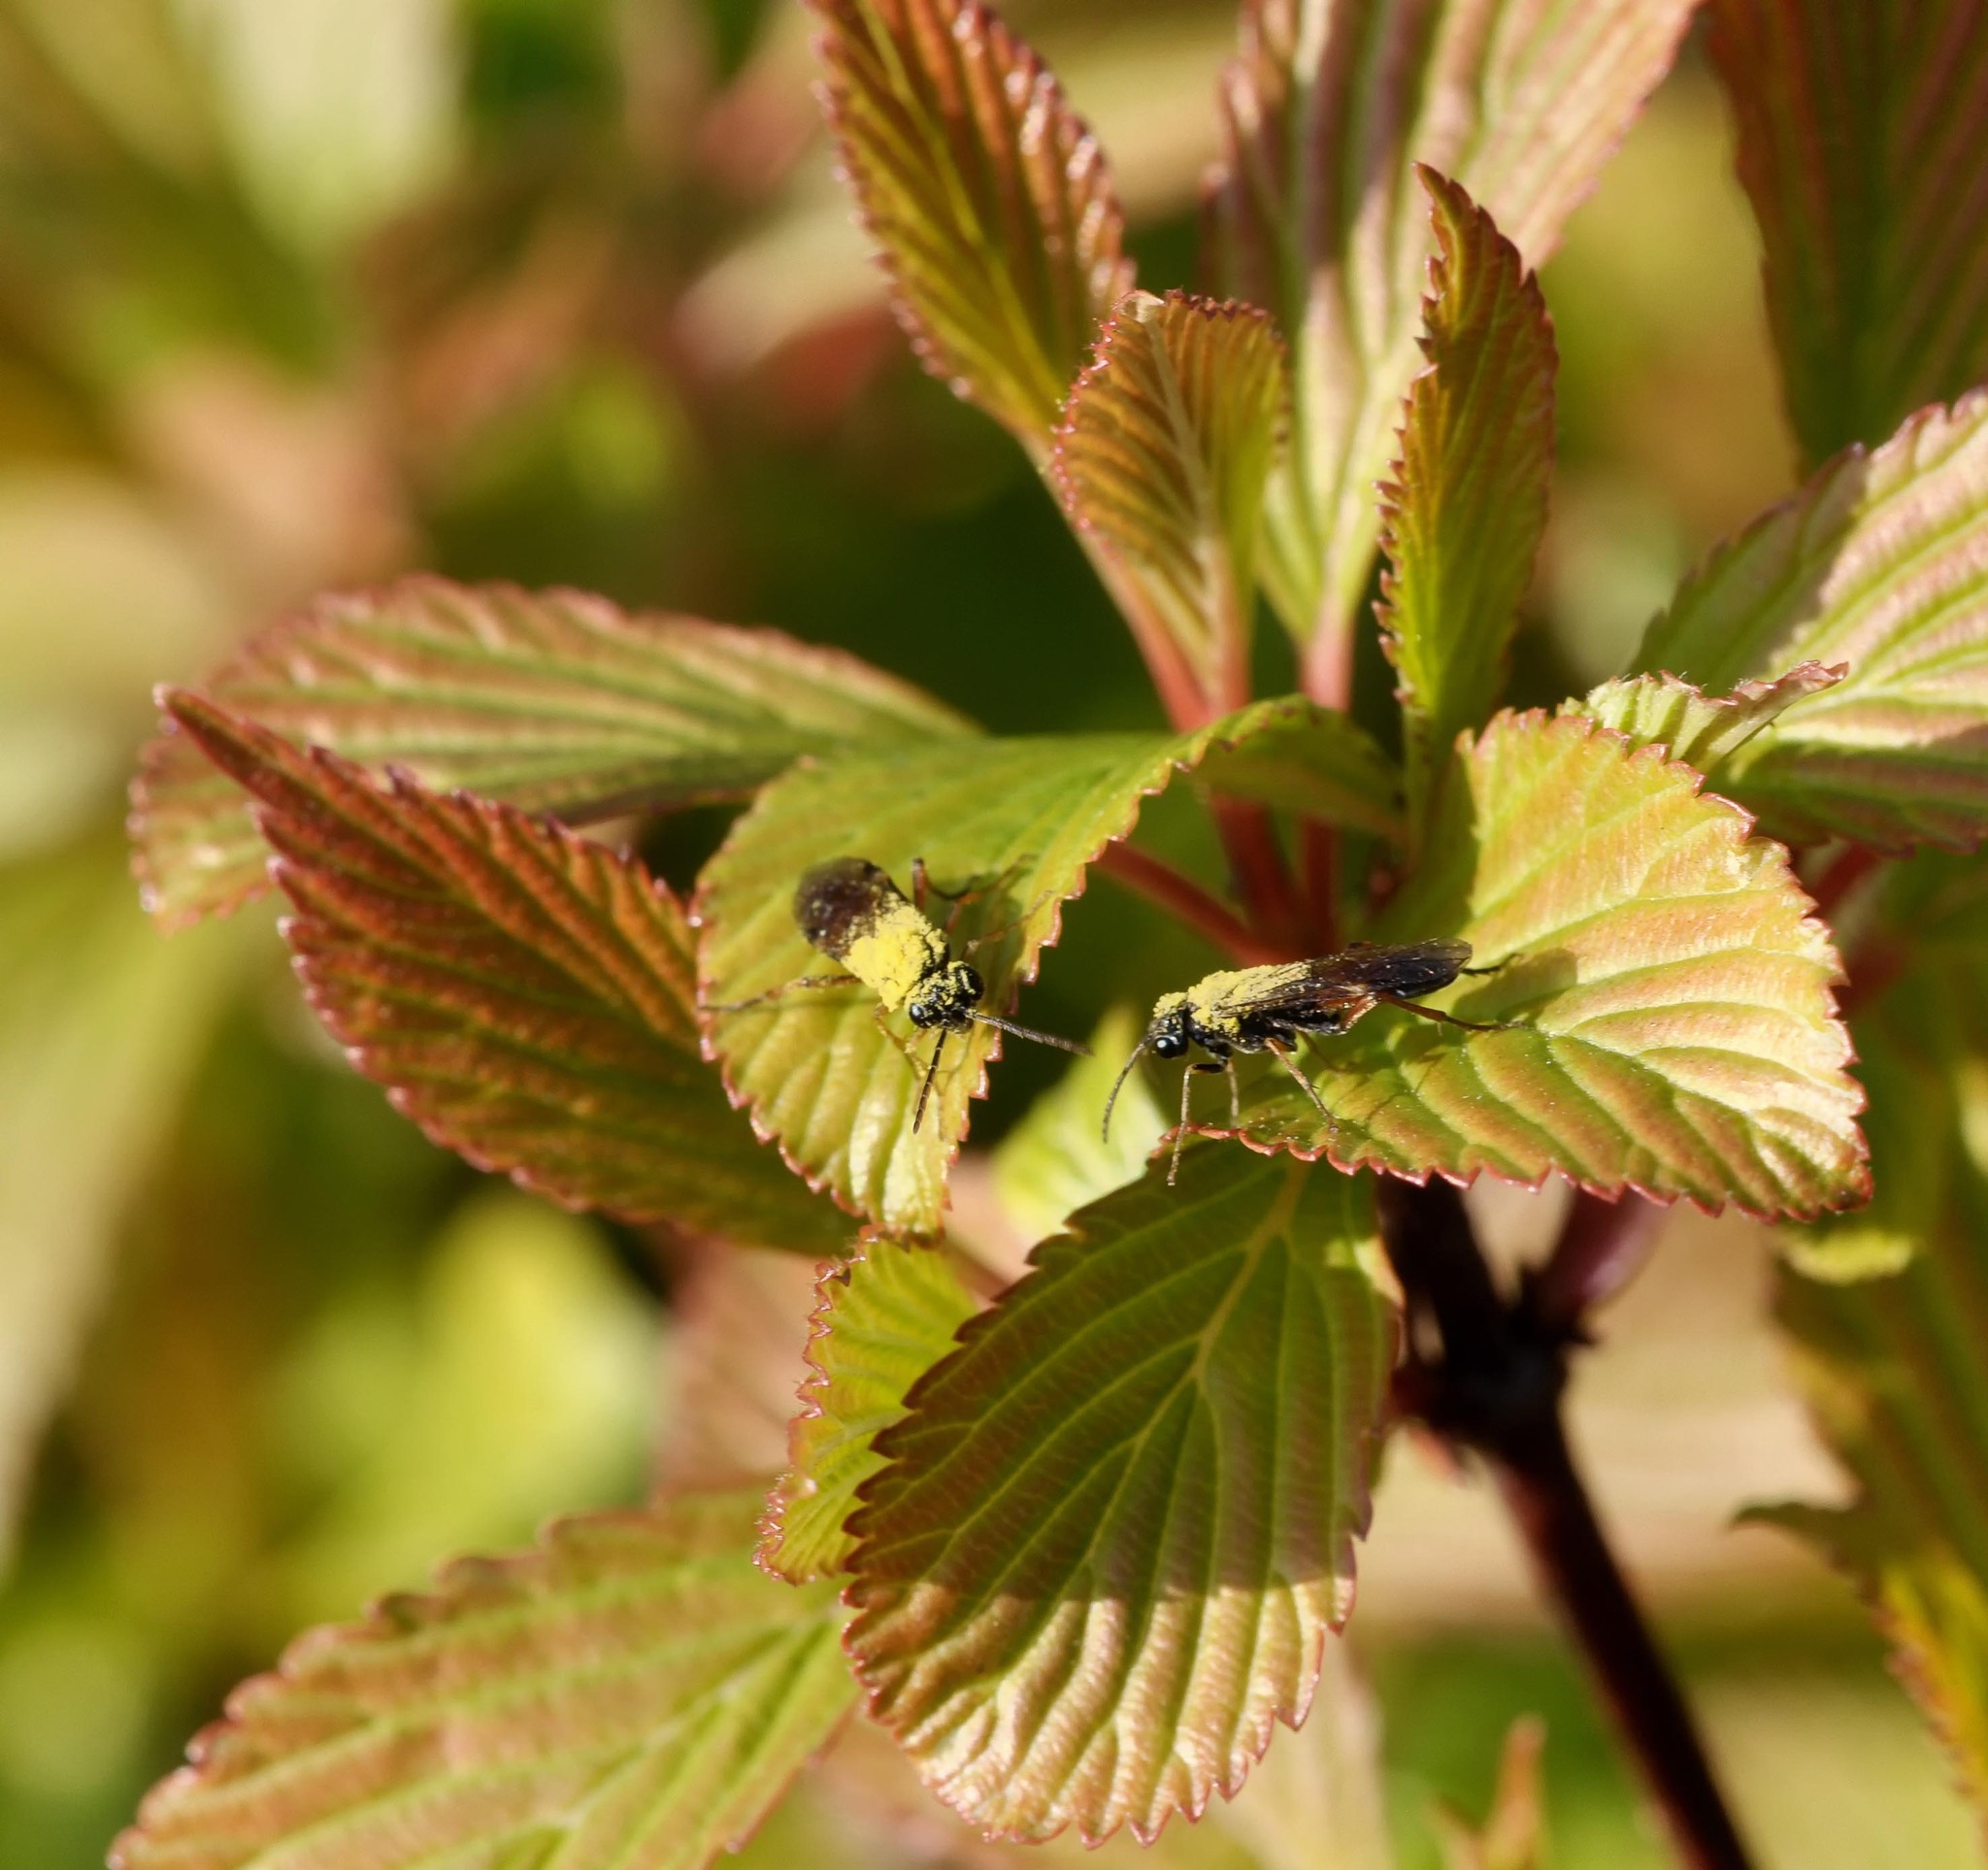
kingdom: Animalia
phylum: Arthropoda
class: Insecta
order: Hymenoptera
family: Tenthredinidae
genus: Aglaostigma
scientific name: Aglaostigma aucupariae
